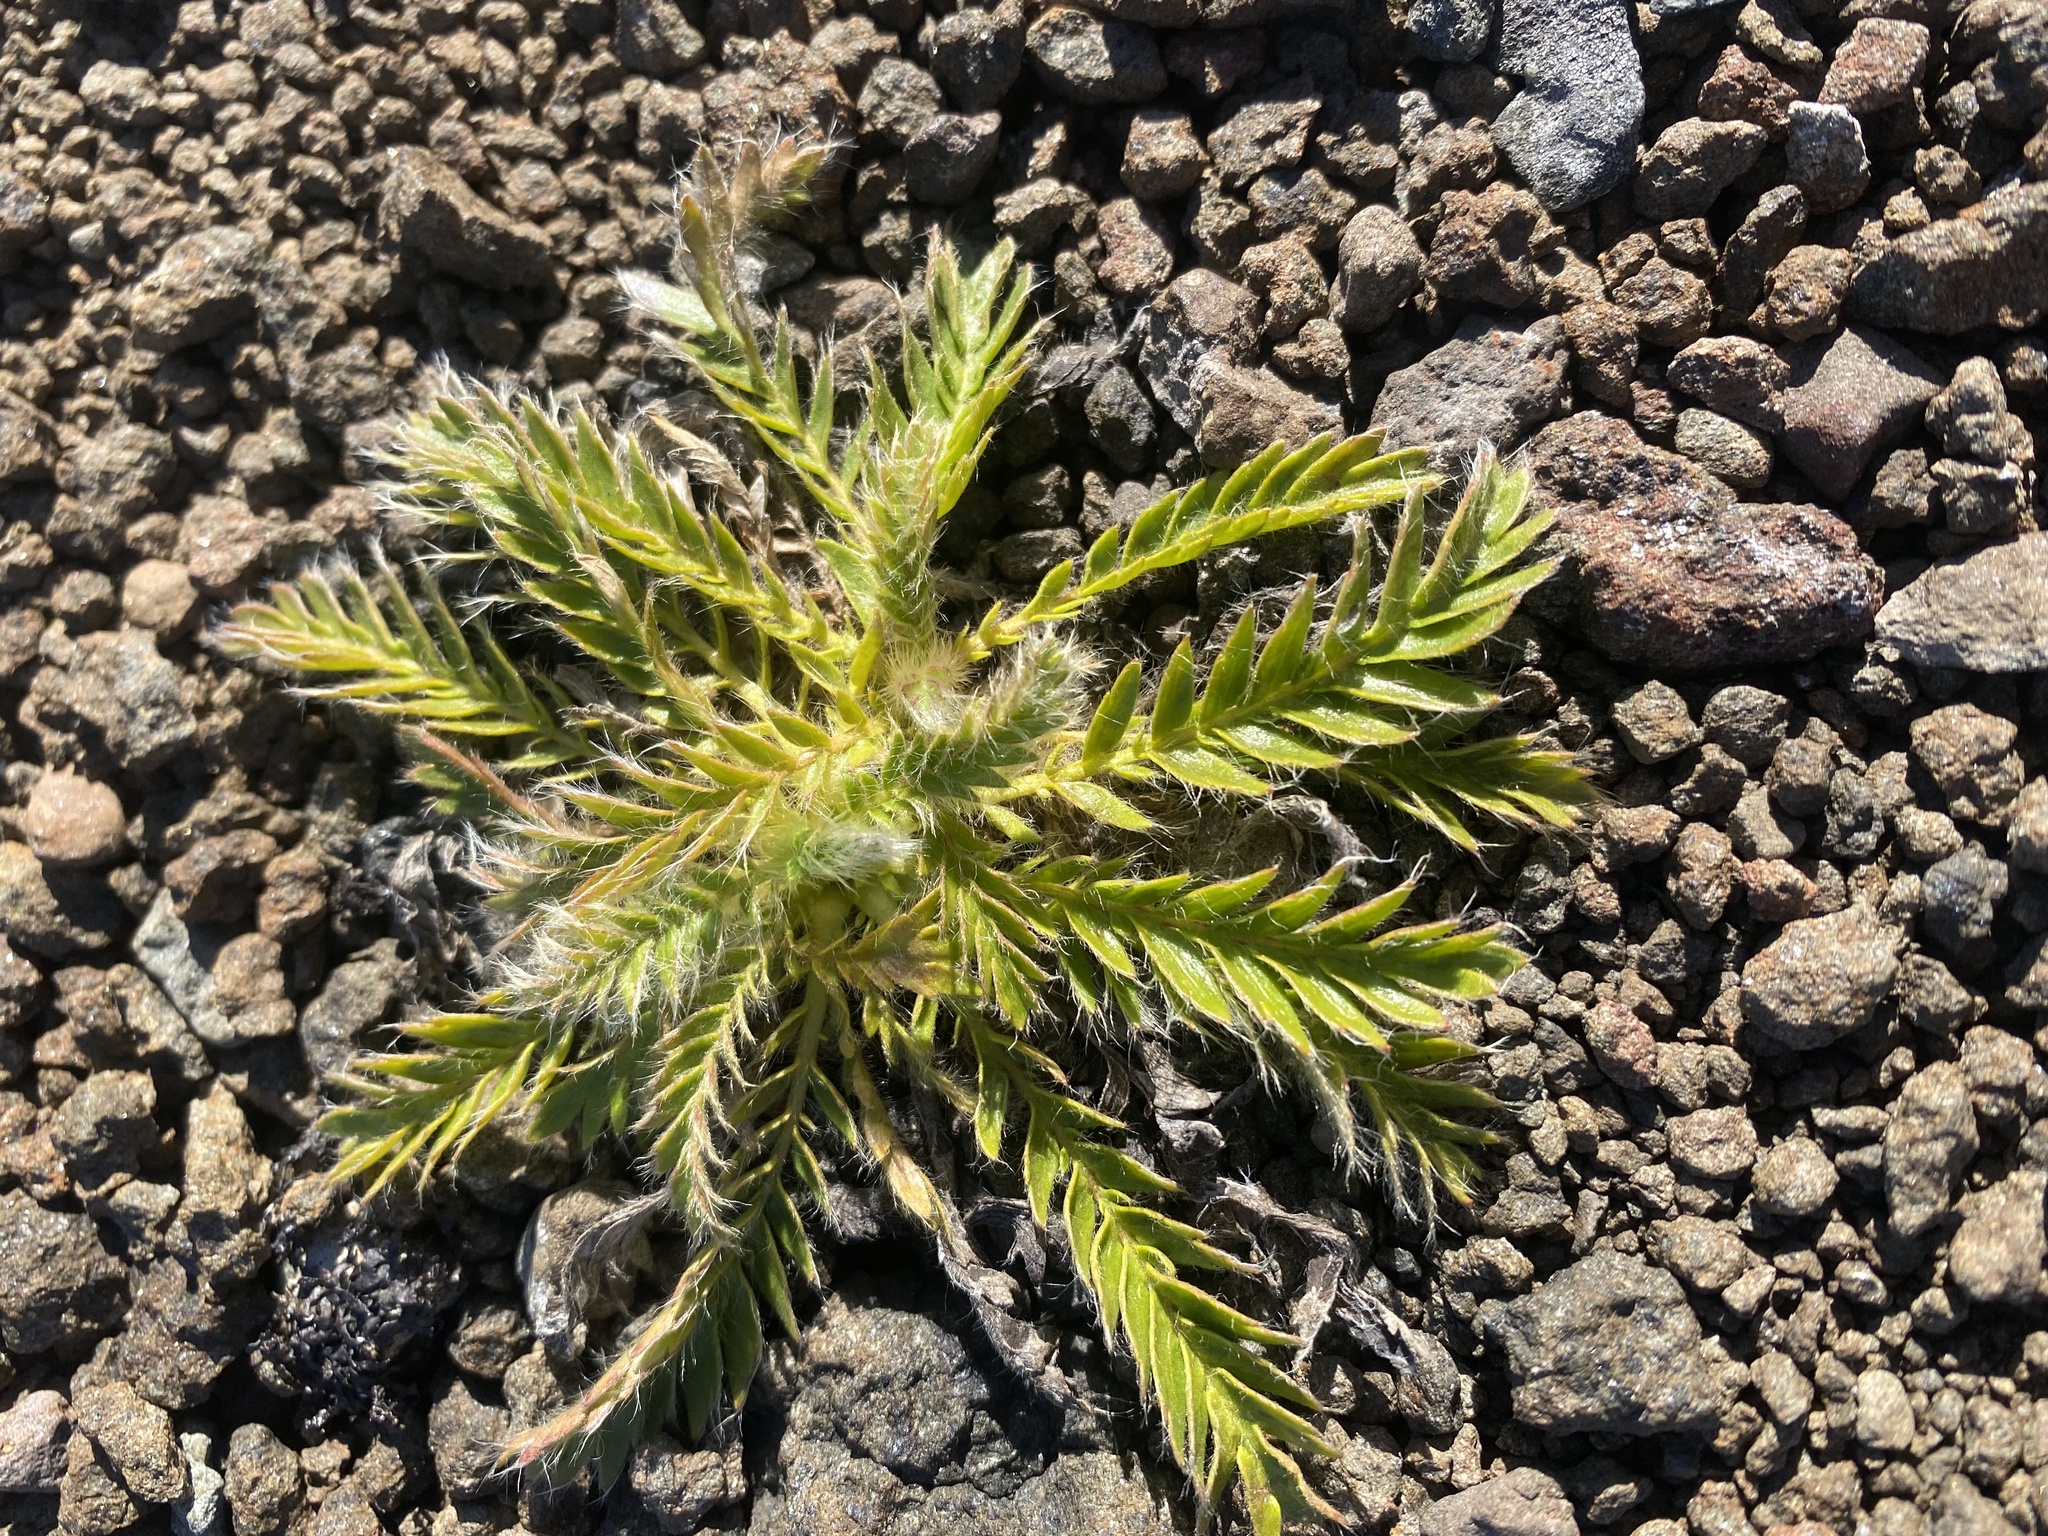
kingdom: Plantae
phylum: Tracheophyta
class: Magnoliopsida
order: Rosales
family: Rosaceae
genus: Geum
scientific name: Geum glaciale
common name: Glacier avens
